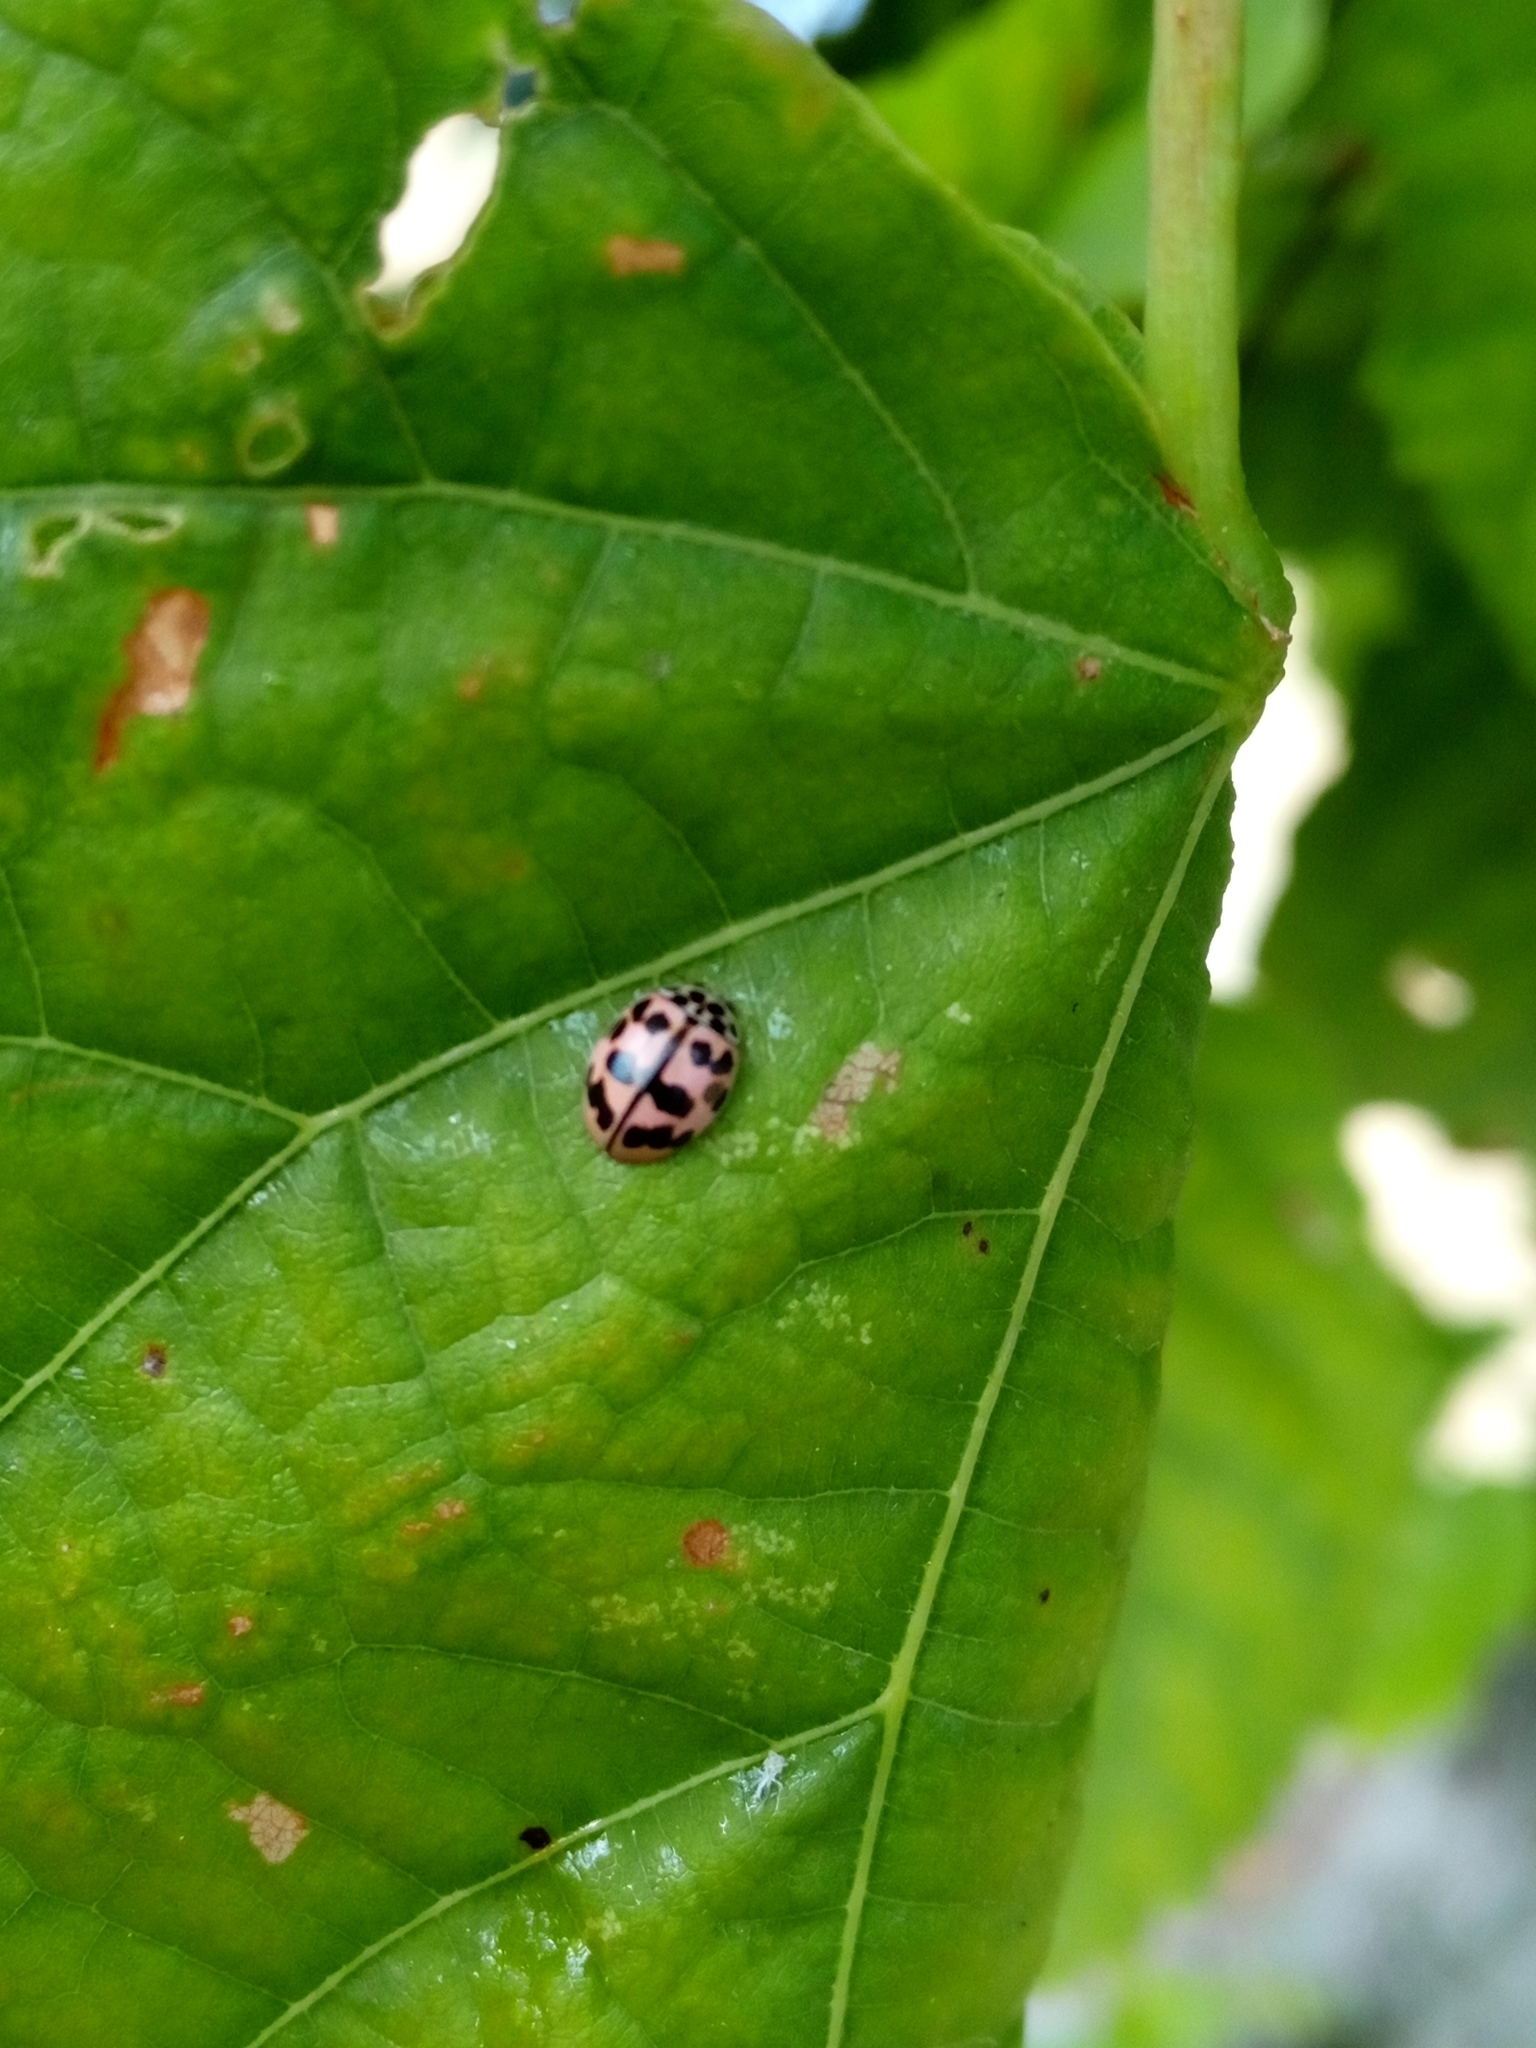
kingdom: Animalia
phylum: Arthropoda
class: Insecta
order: Coleoptera
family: Coccinellidae
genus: Oenopia
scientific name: Oenopia conglobata
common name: Ladybird beetle
